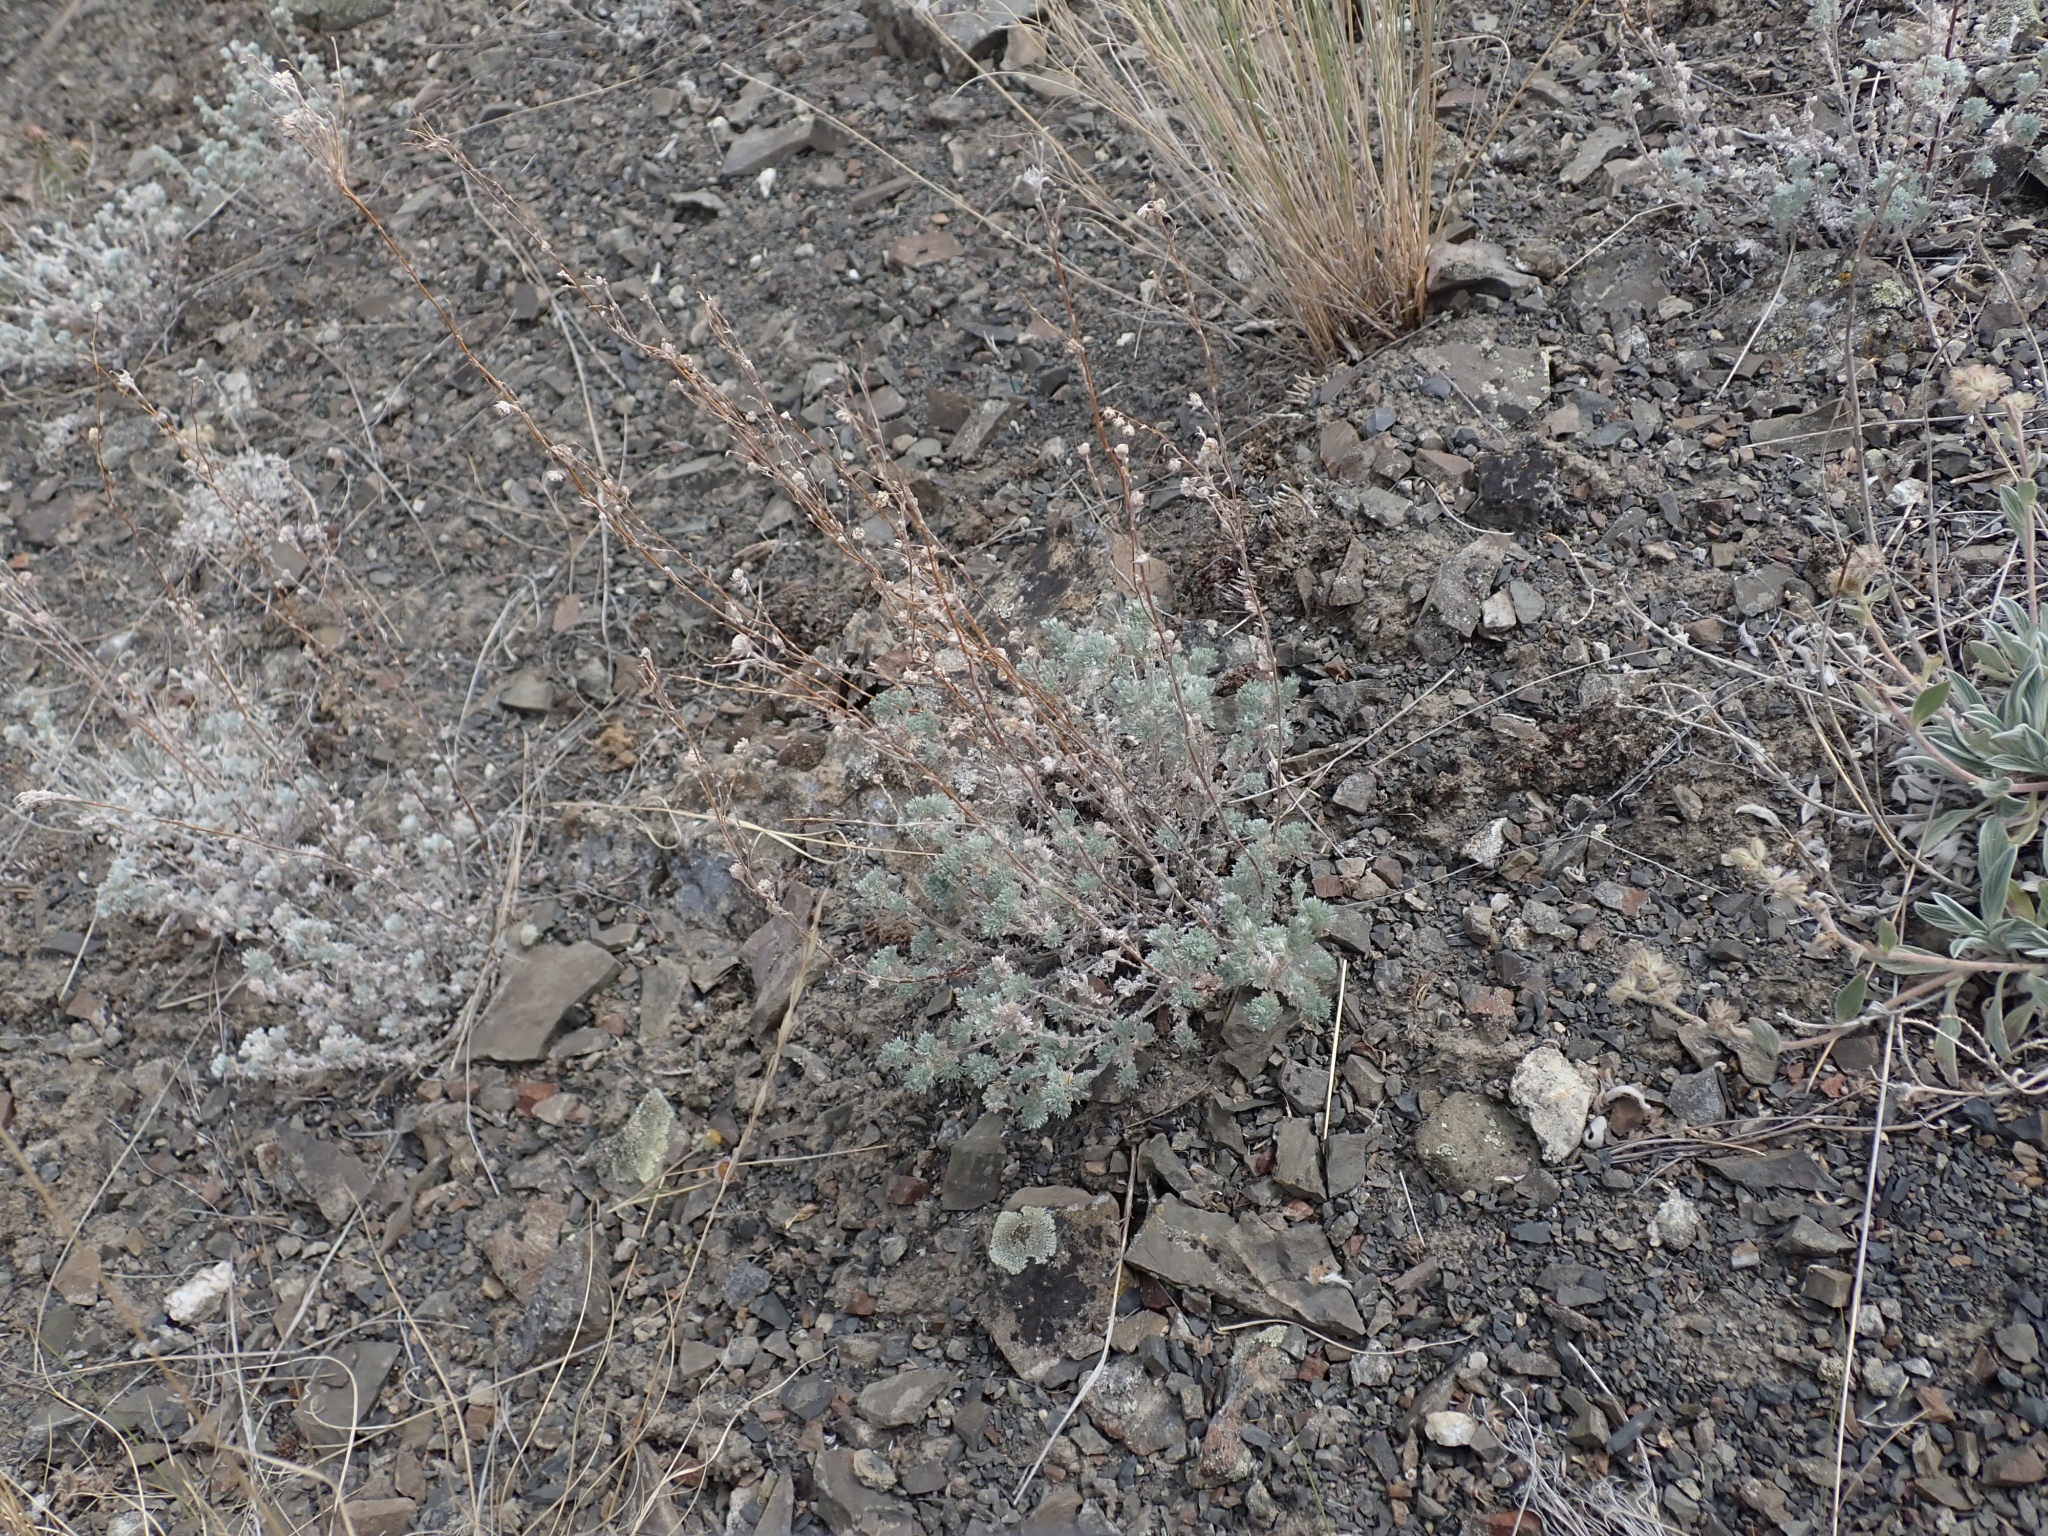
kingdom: Plantae
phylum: Tracheophyta
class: Magnoliopsida
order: Asterales
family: Asteraceae
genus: Artemisia
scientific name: Artemisia frigida
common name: Prairie sagewort
